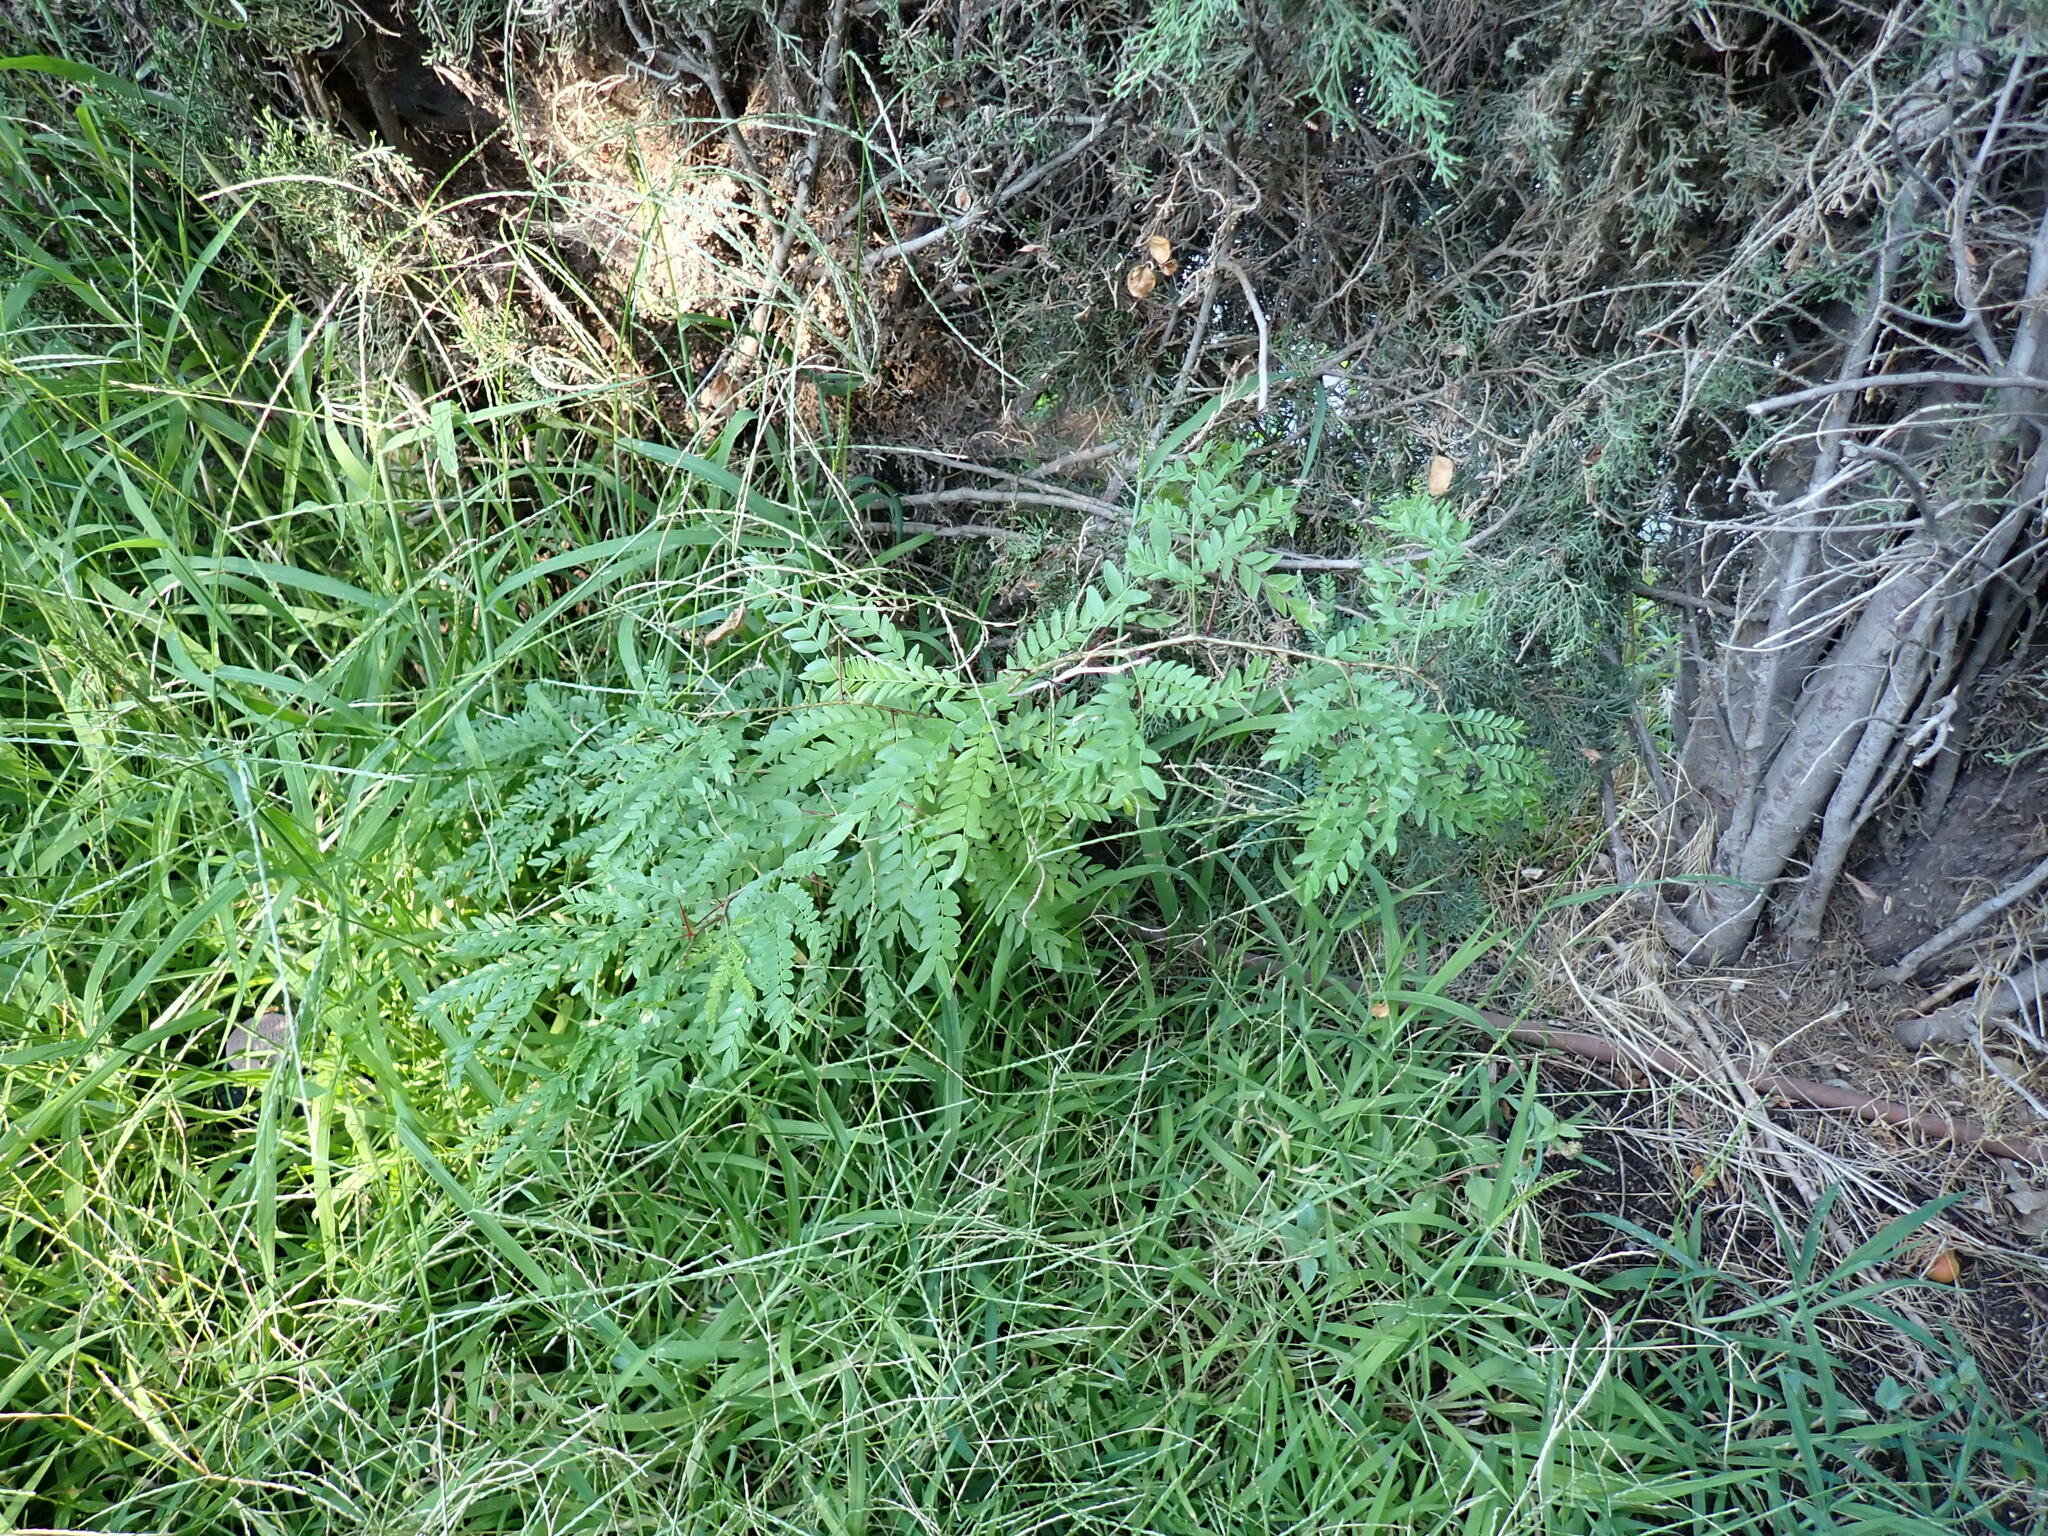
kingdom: Plantae
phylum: Tracheophyta
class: Magnoliopsida
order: Fabales
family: Fabaceae
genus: Gleditsia
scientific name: Gleditsia triacanthos
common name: Common honeylocust
